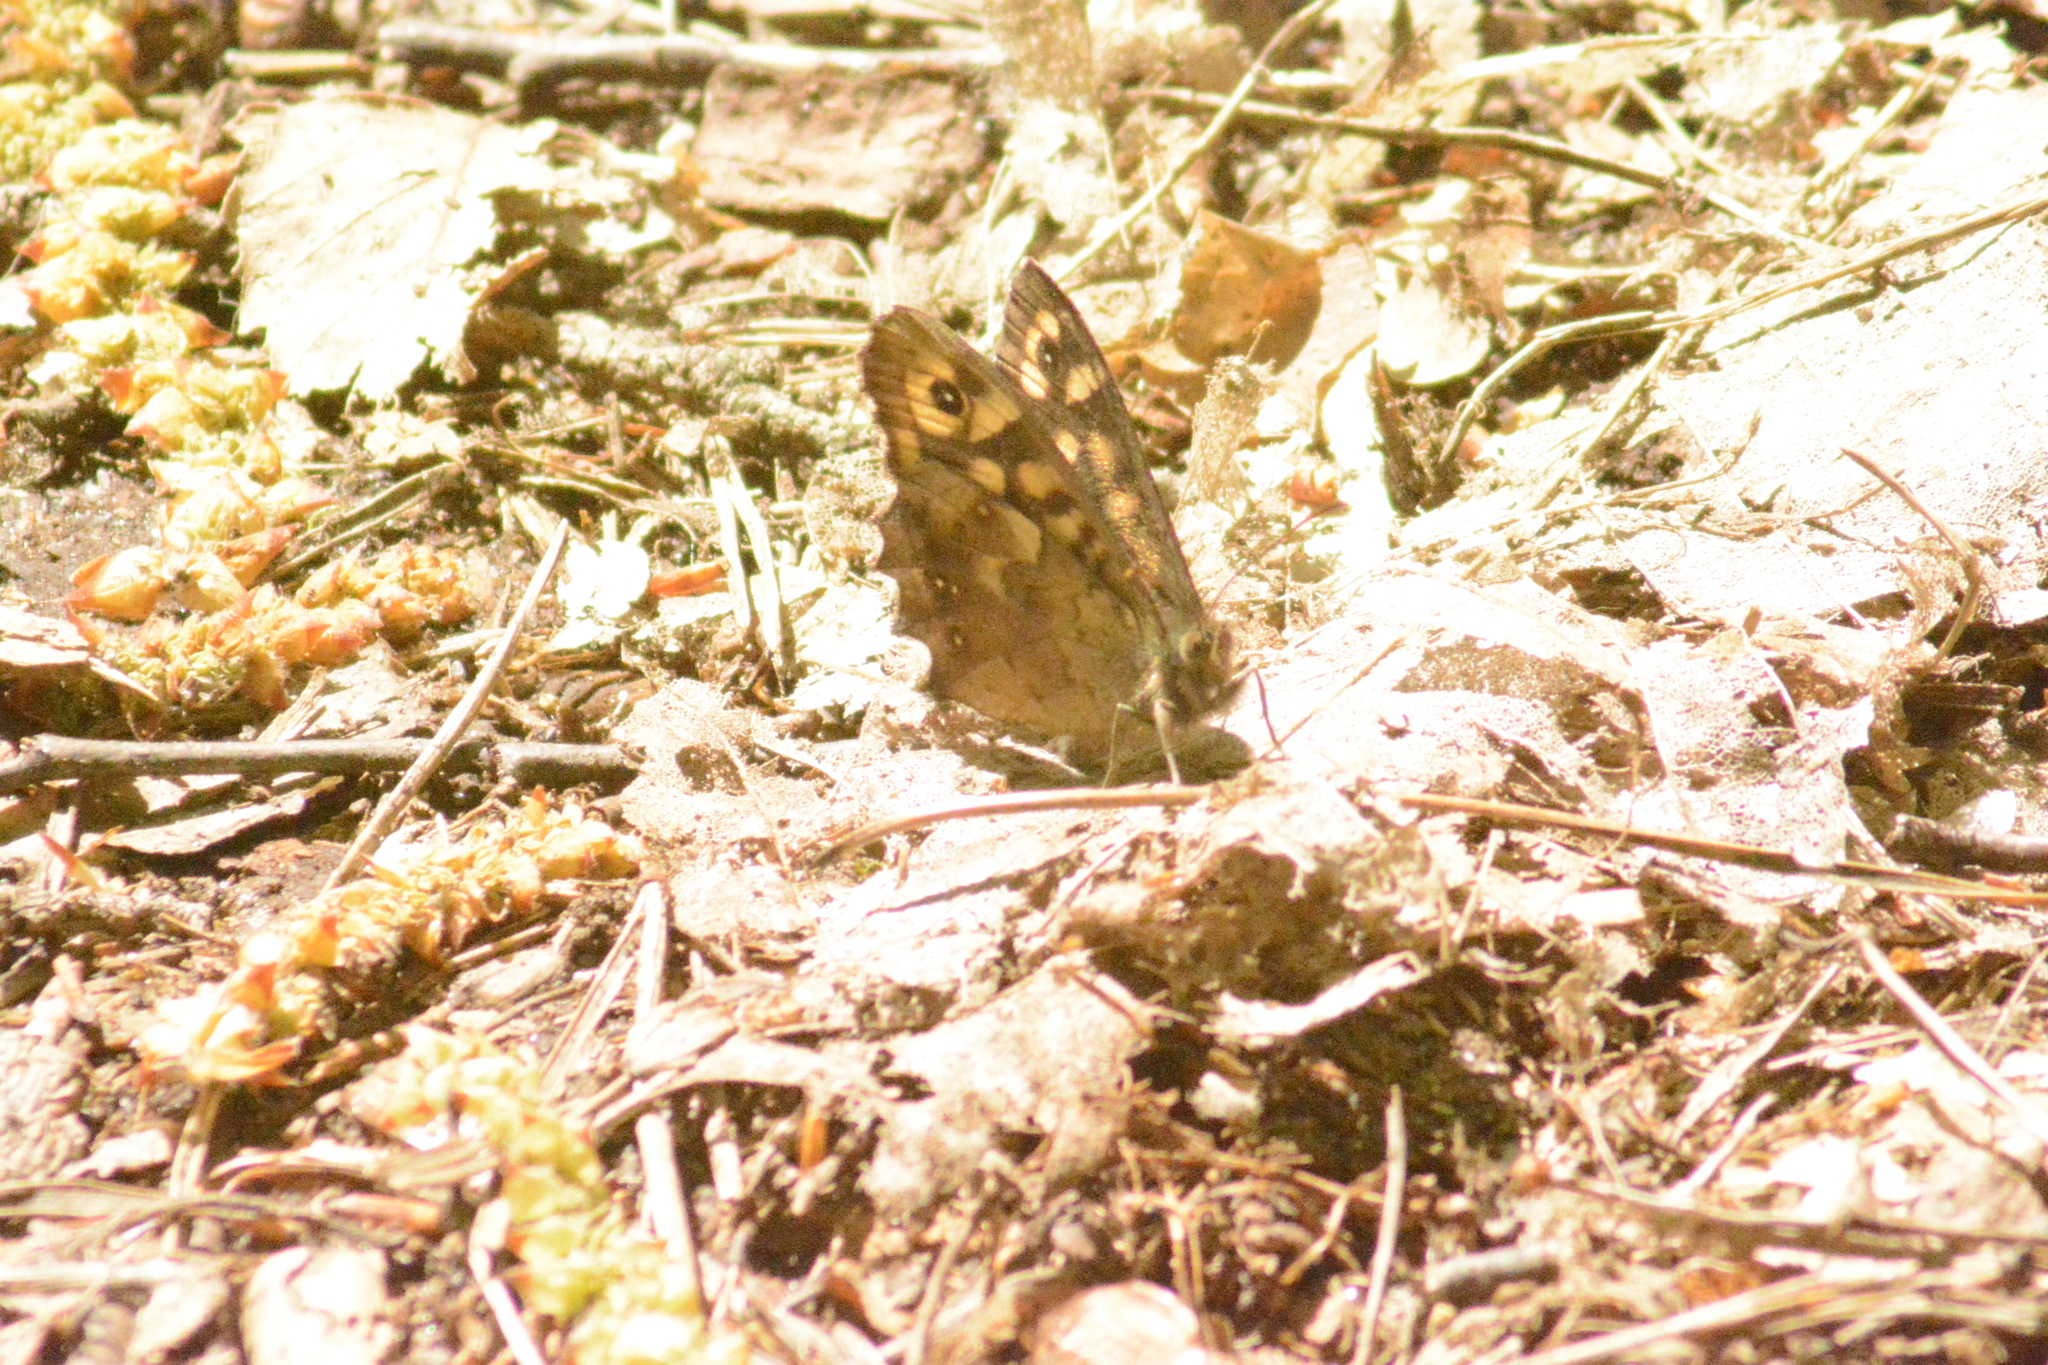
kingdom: Animalia
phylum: Arthropoda
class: Insecta
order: Lepidoptera
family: Nymphalidae
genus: Pararge
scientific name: Pararge aegeria
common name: Speckled wood
